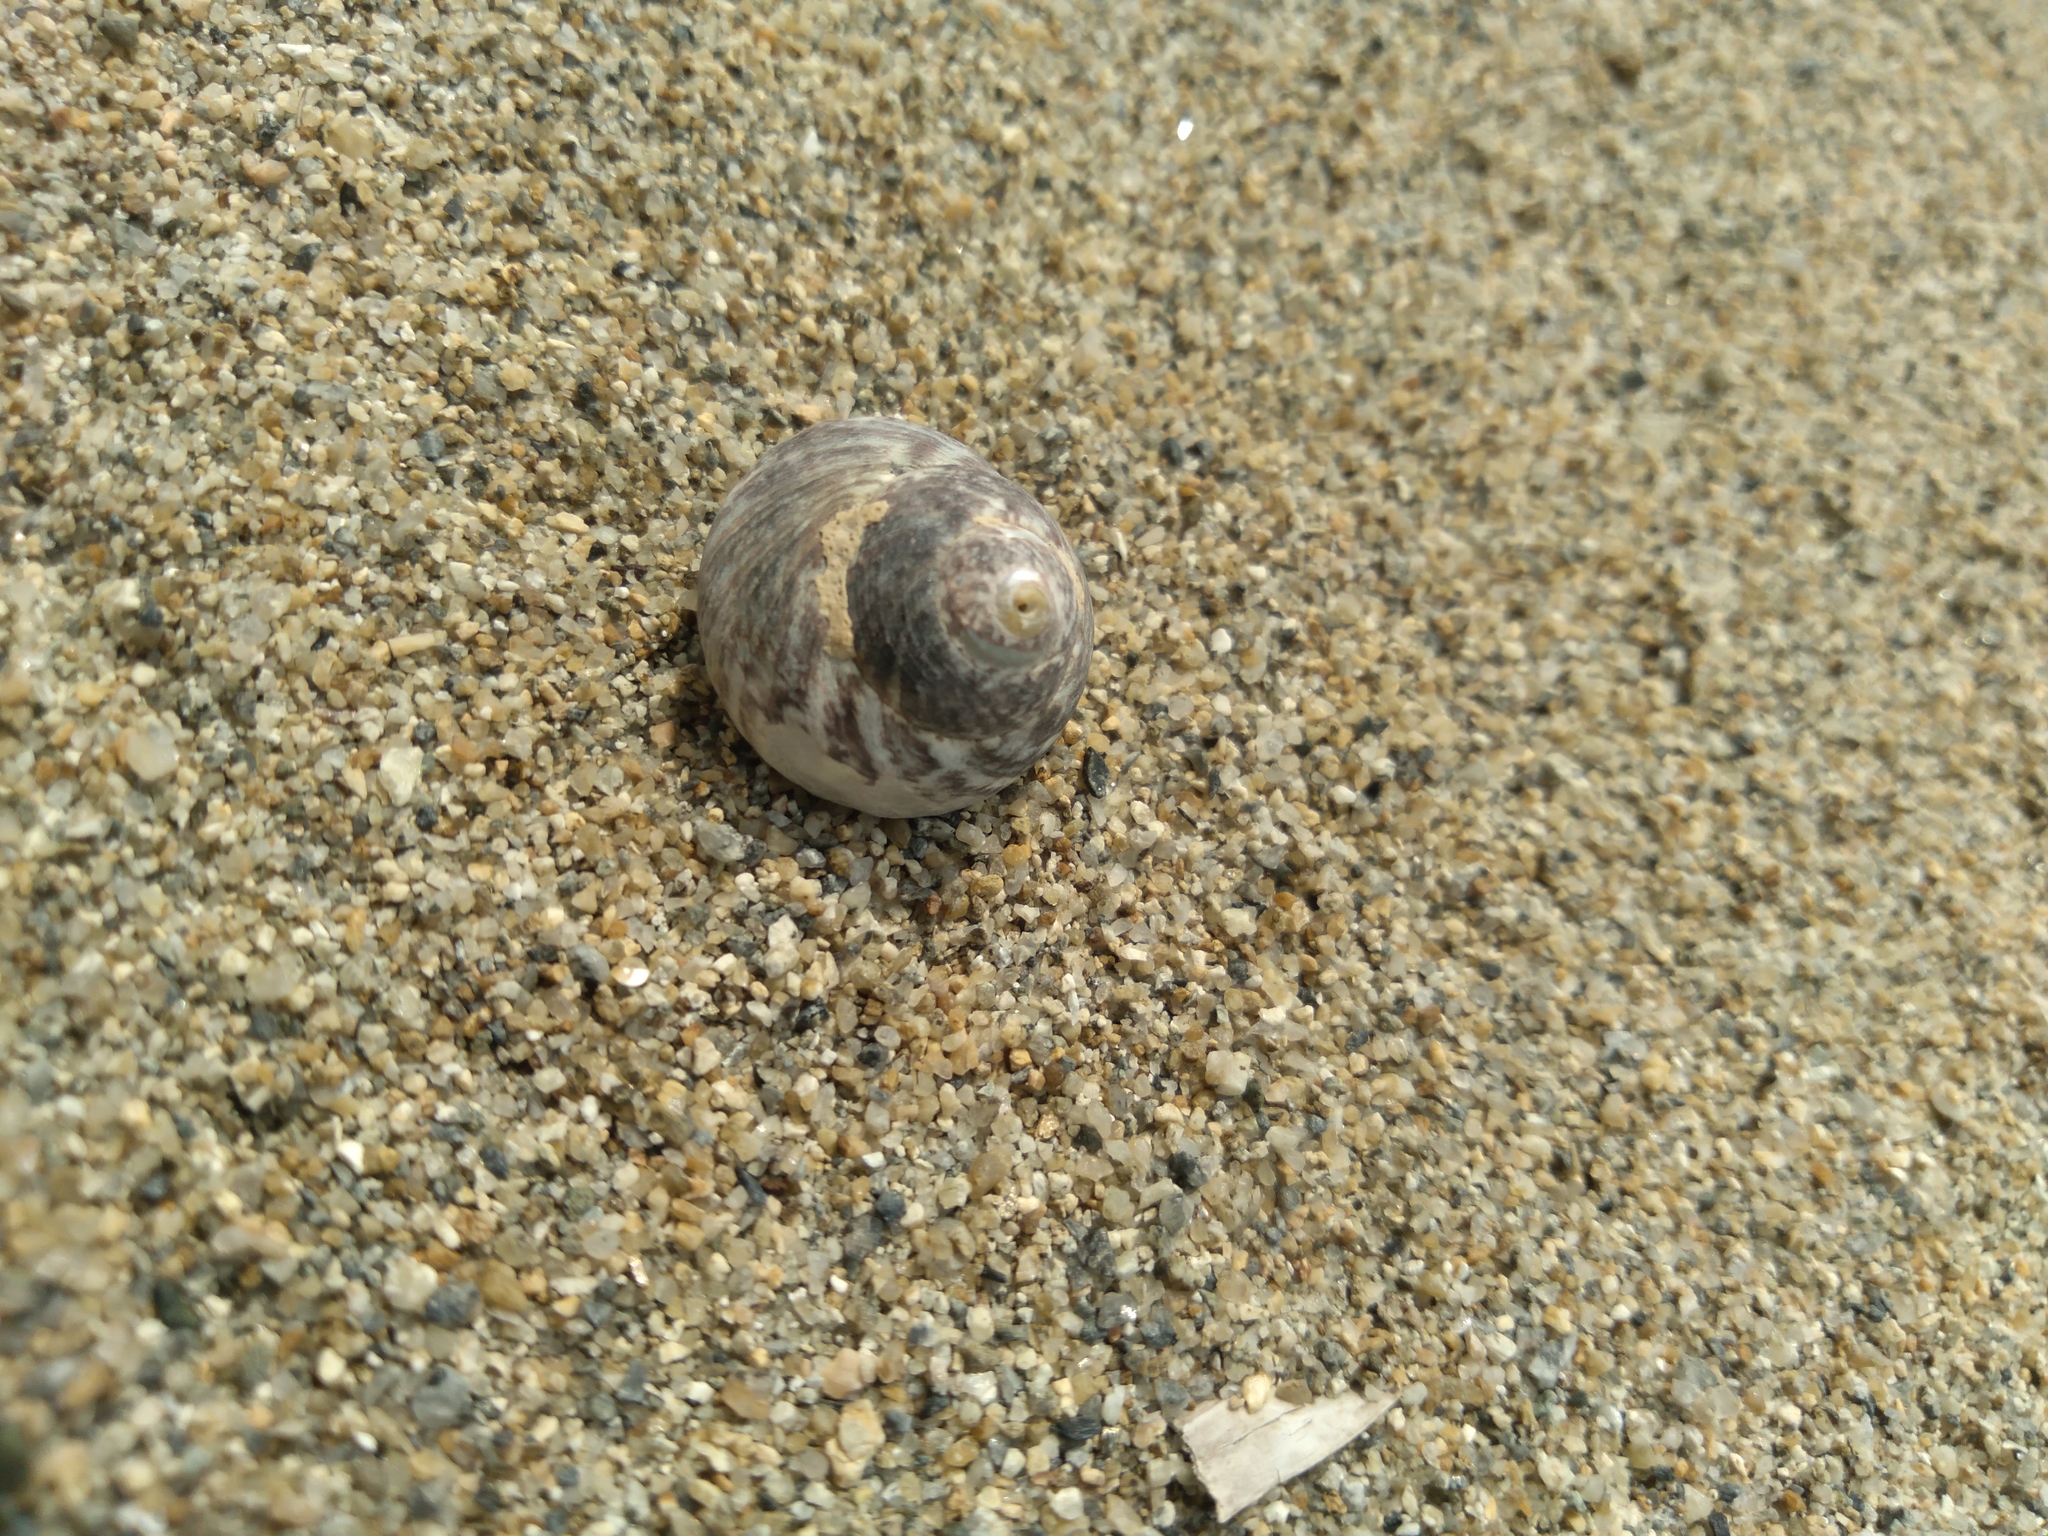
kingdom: Animalia
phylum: Mollusca
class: Gastropoda
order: Trochida
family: Tegulidae
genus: Tegula
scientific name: Tegula rustica
